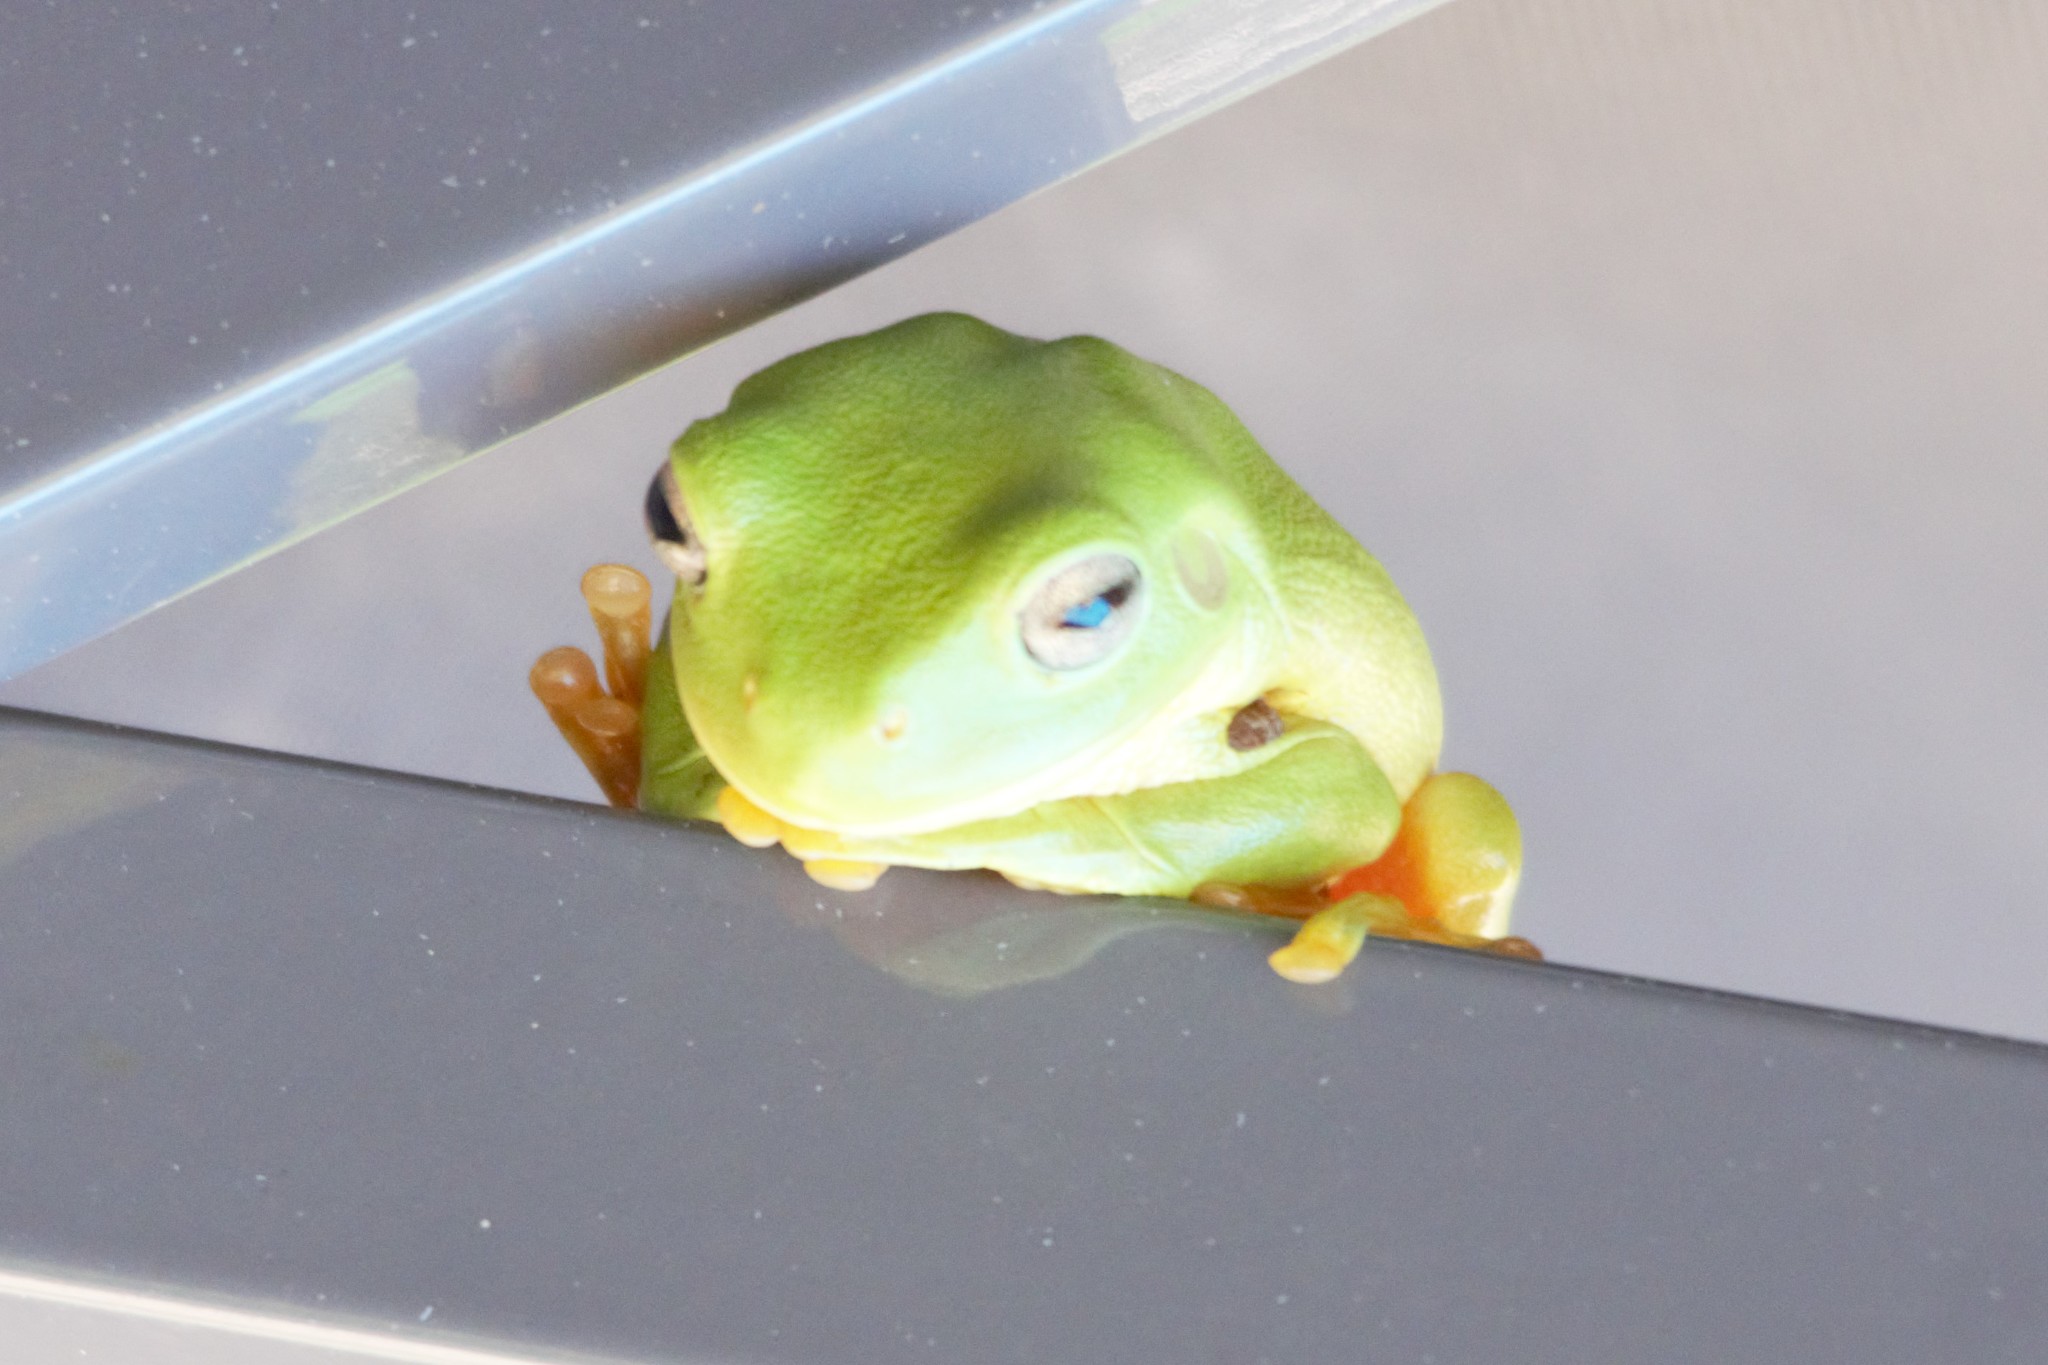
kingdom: Animalia
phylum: Chordata
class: Amphibia
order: Anura
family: Pelodryadidae
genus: Ranoidea
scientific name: Ranoidea caerulea
